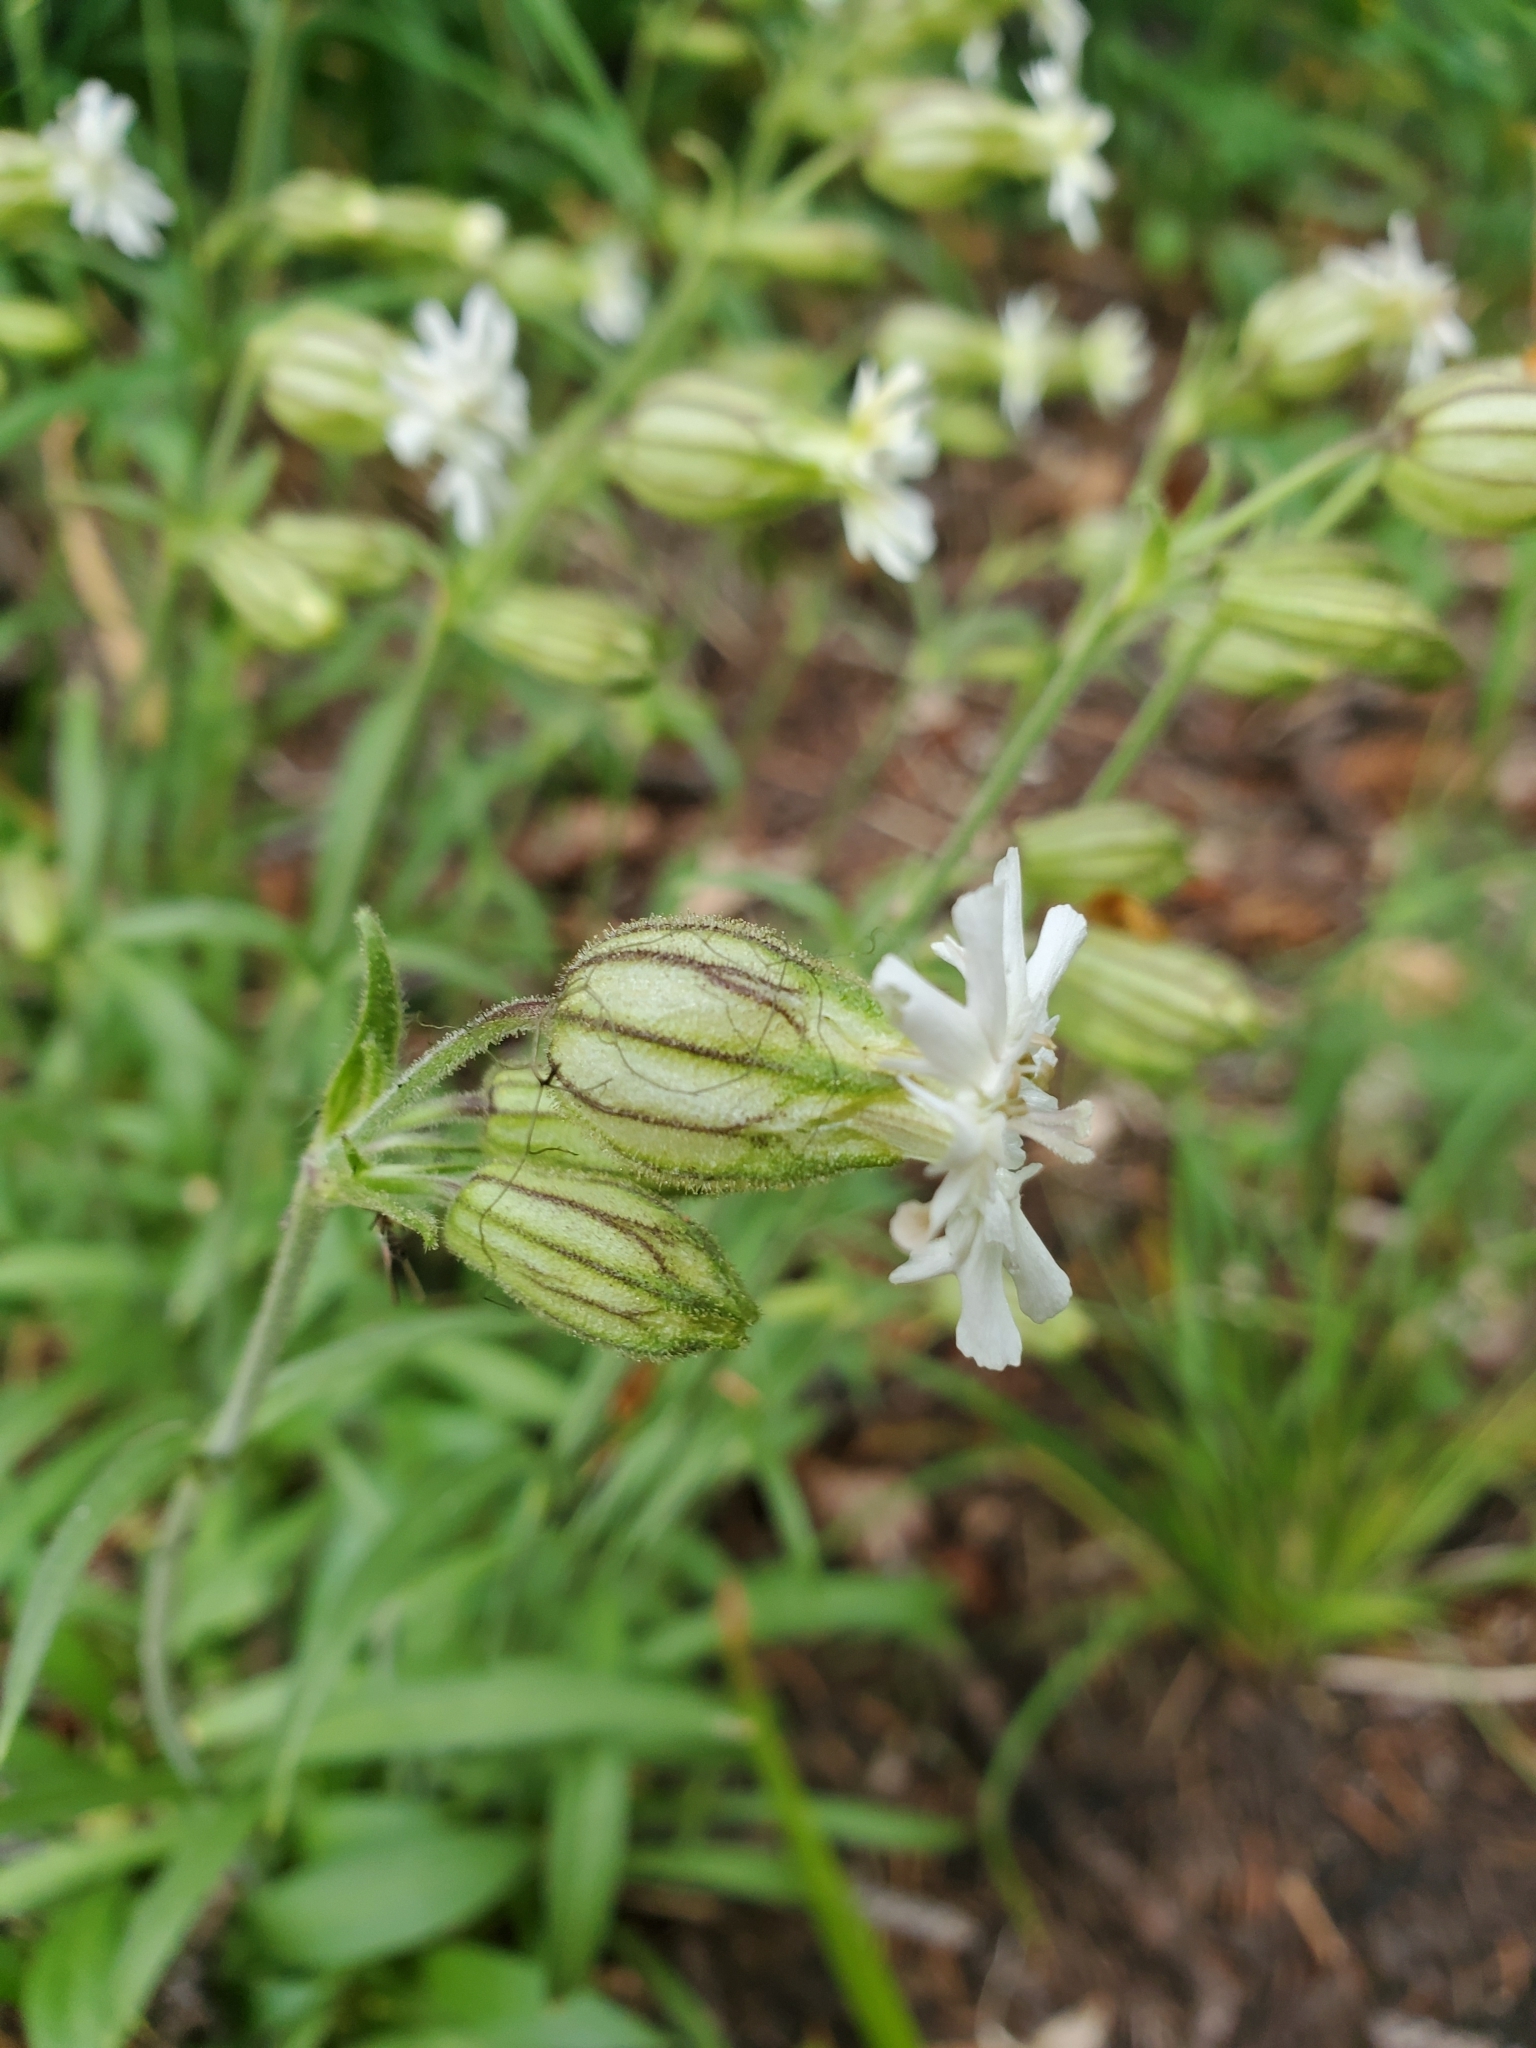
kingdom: Plantae
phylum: Tracheophyta
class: Magnoliopsida
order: Caryophyllales
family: Caryophyllaceae
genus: Silene
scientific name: Silene parryi
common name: Parry's campion
